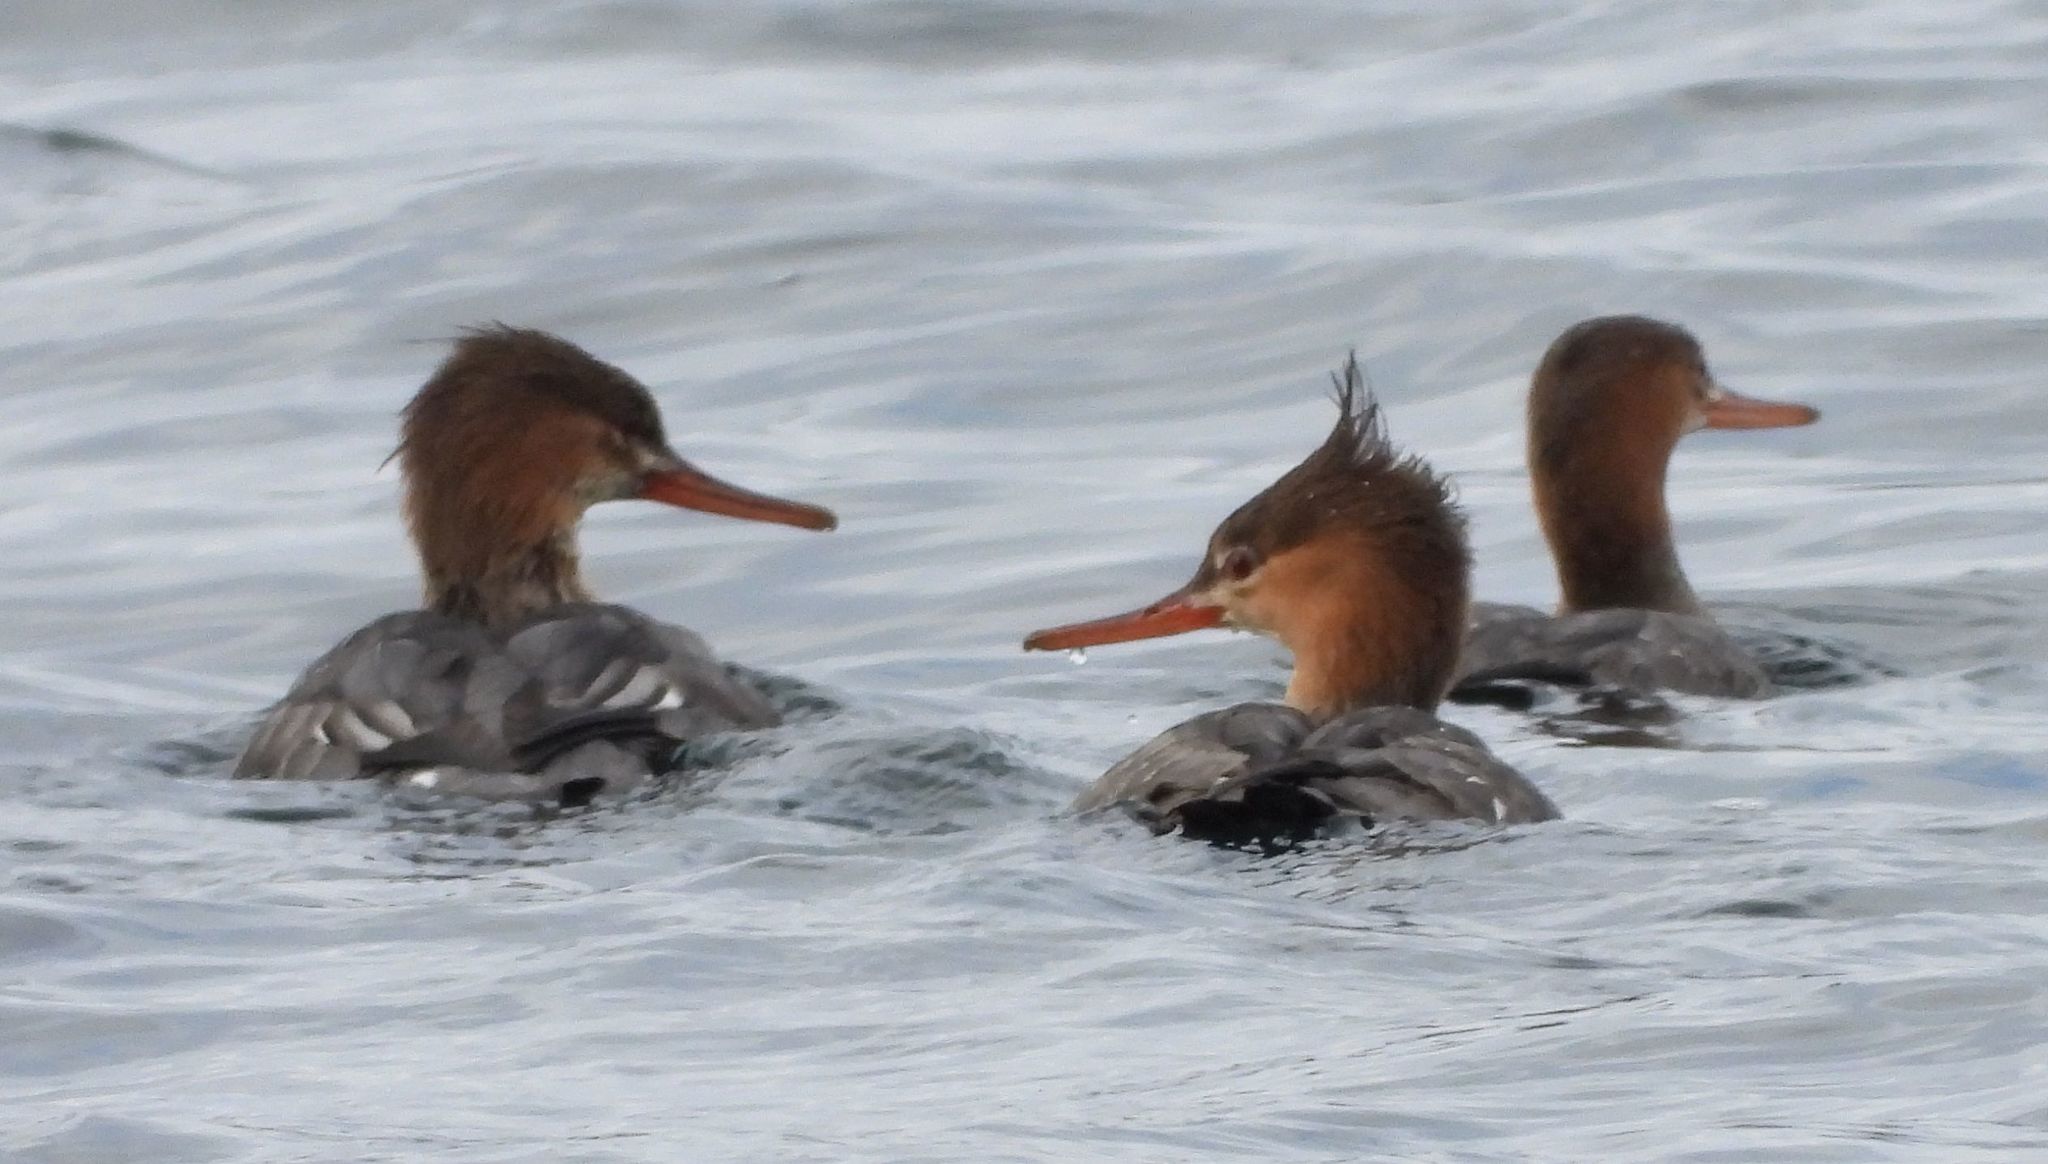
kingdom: Animalia
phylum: Chordata
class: Aves
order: Anseriformes
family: Anatidae
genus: Mergus
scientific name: Mergus serrator
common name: Red-breasted merganser
